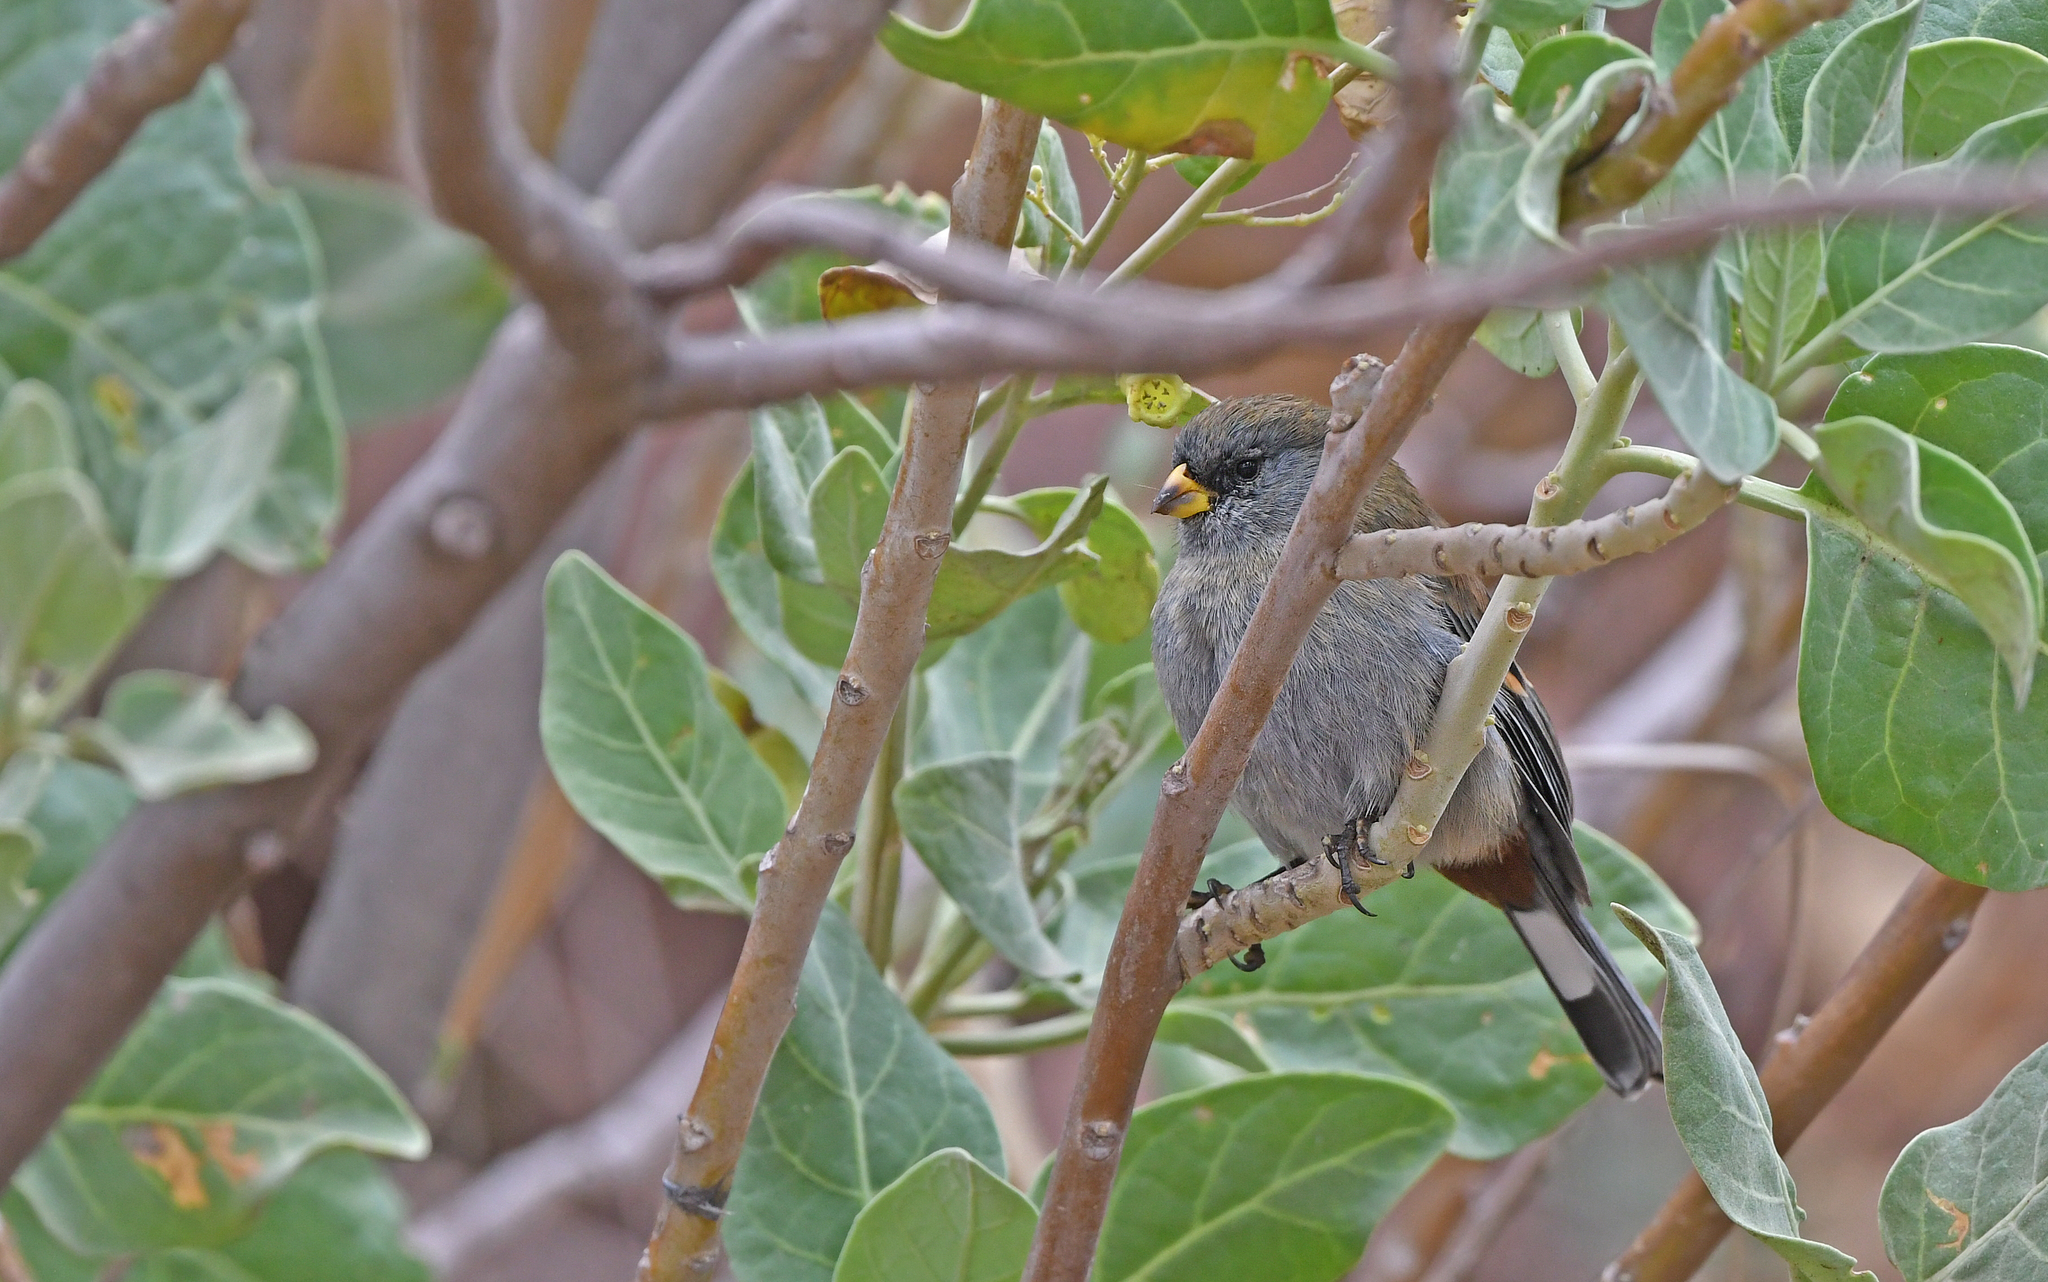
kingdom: Animalia
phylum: Chordata
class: Aves
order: Passeriformes
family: Thraupidae
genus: Catamenia
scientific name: Catamenia analis
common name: Band-tailed seedeater
